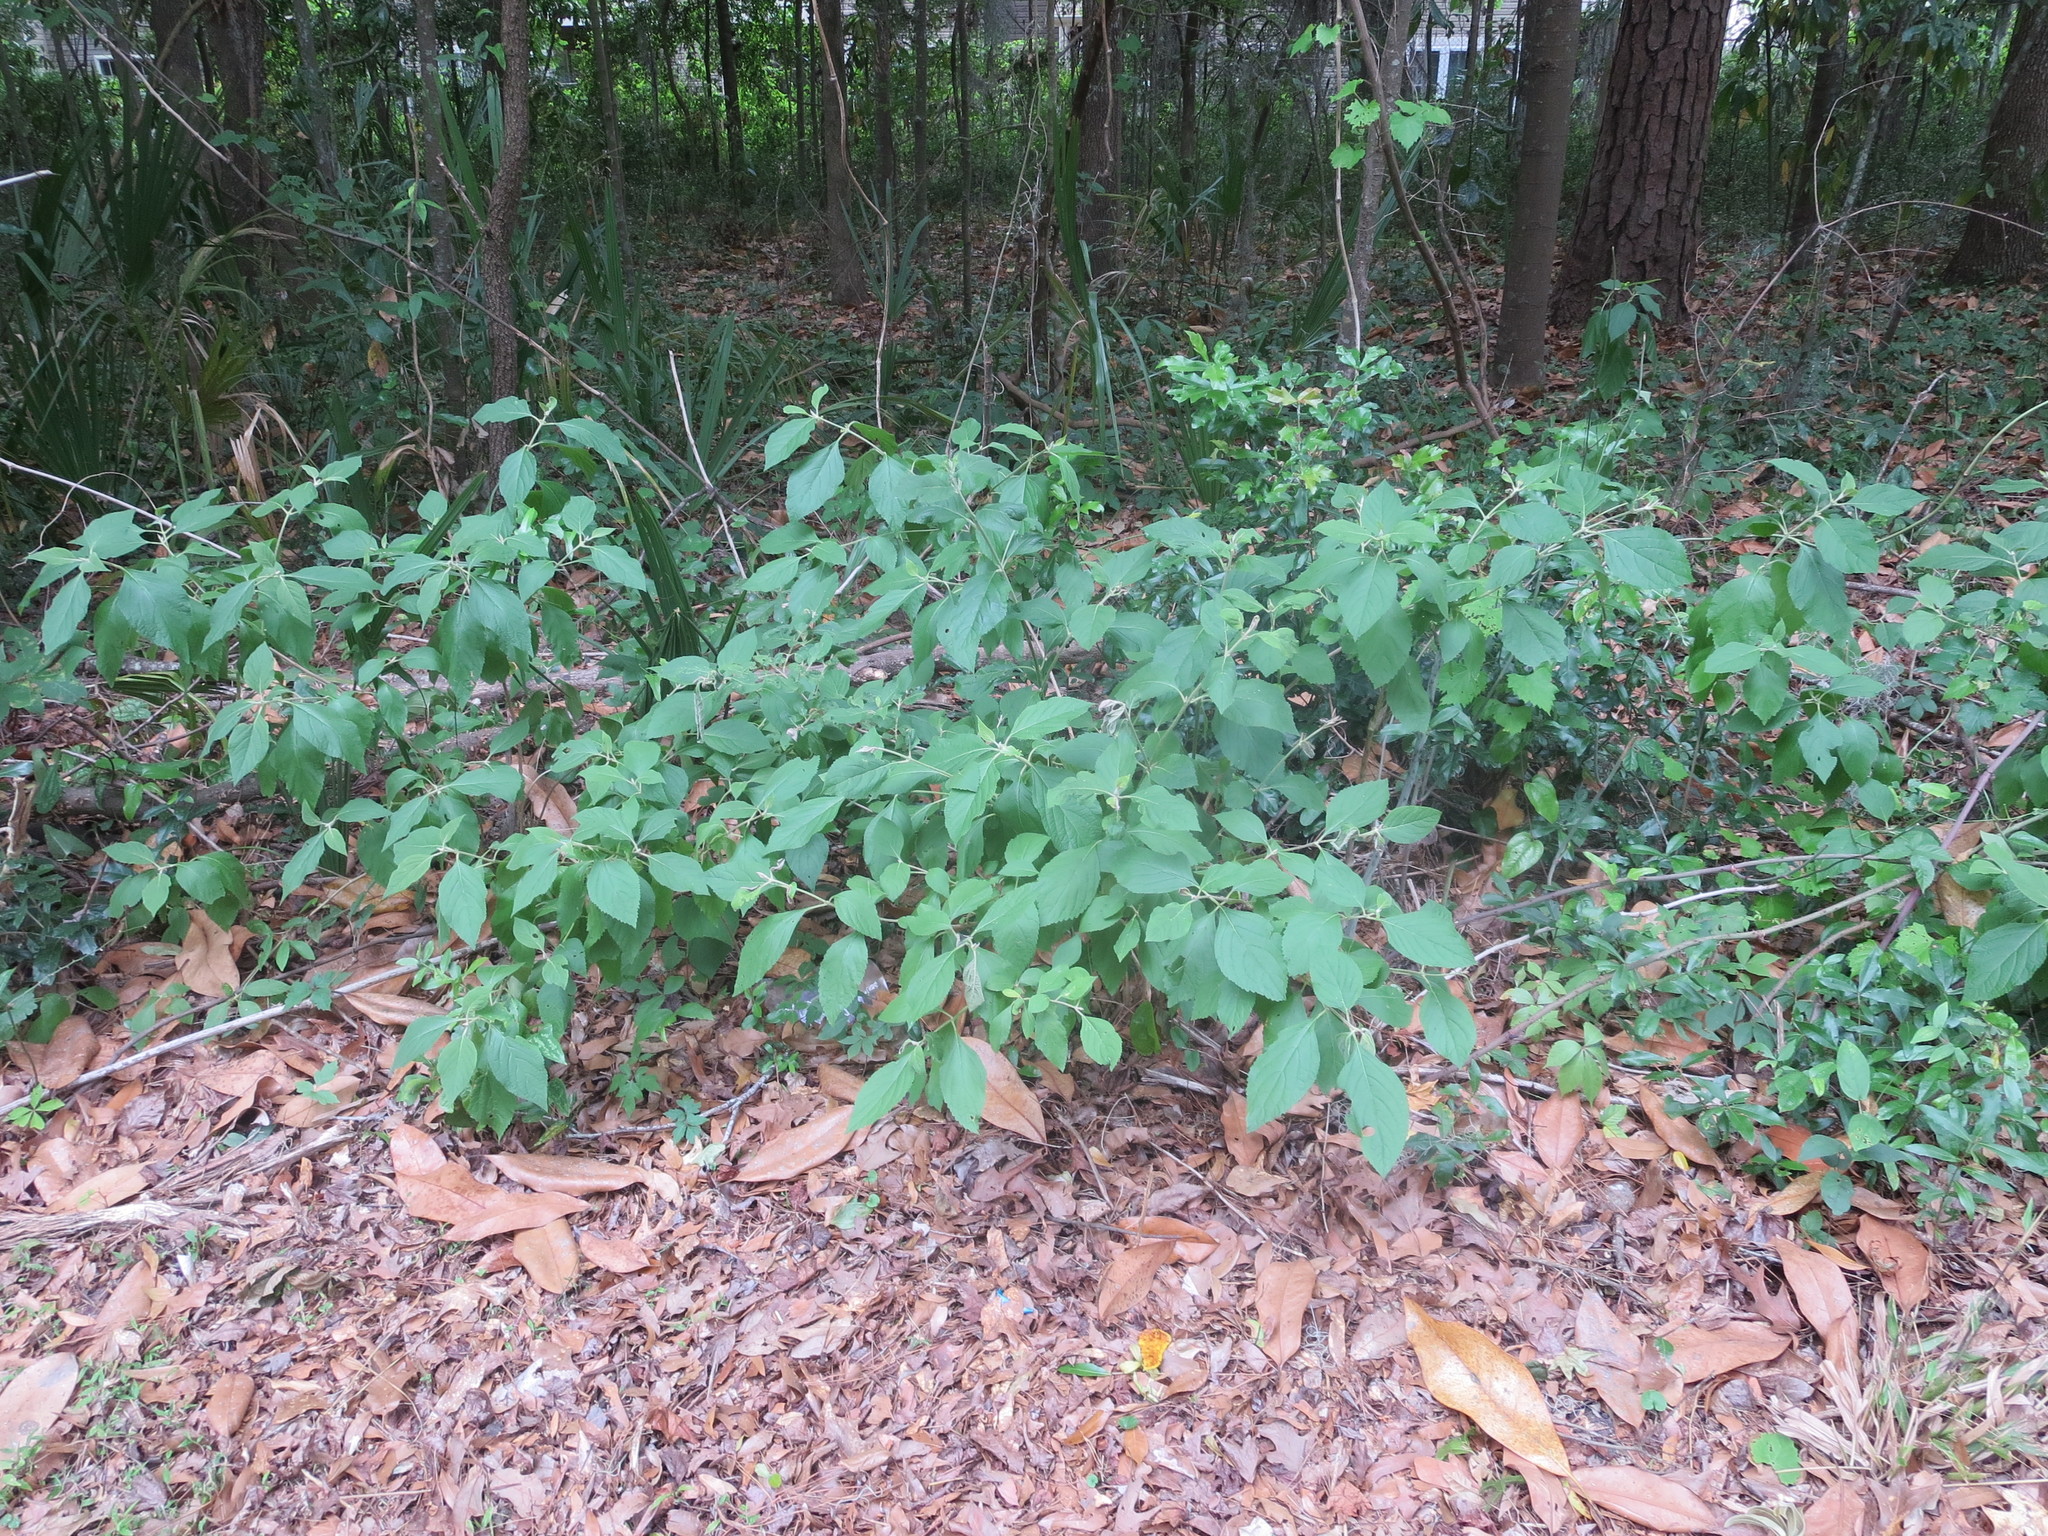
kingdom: Plantae
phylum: Tracheophyta
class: Magnoliopsida
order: Lamiales
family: Lamiaceae
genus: Callicarpa
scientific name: Callicarpa americana
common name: American beautyberry
